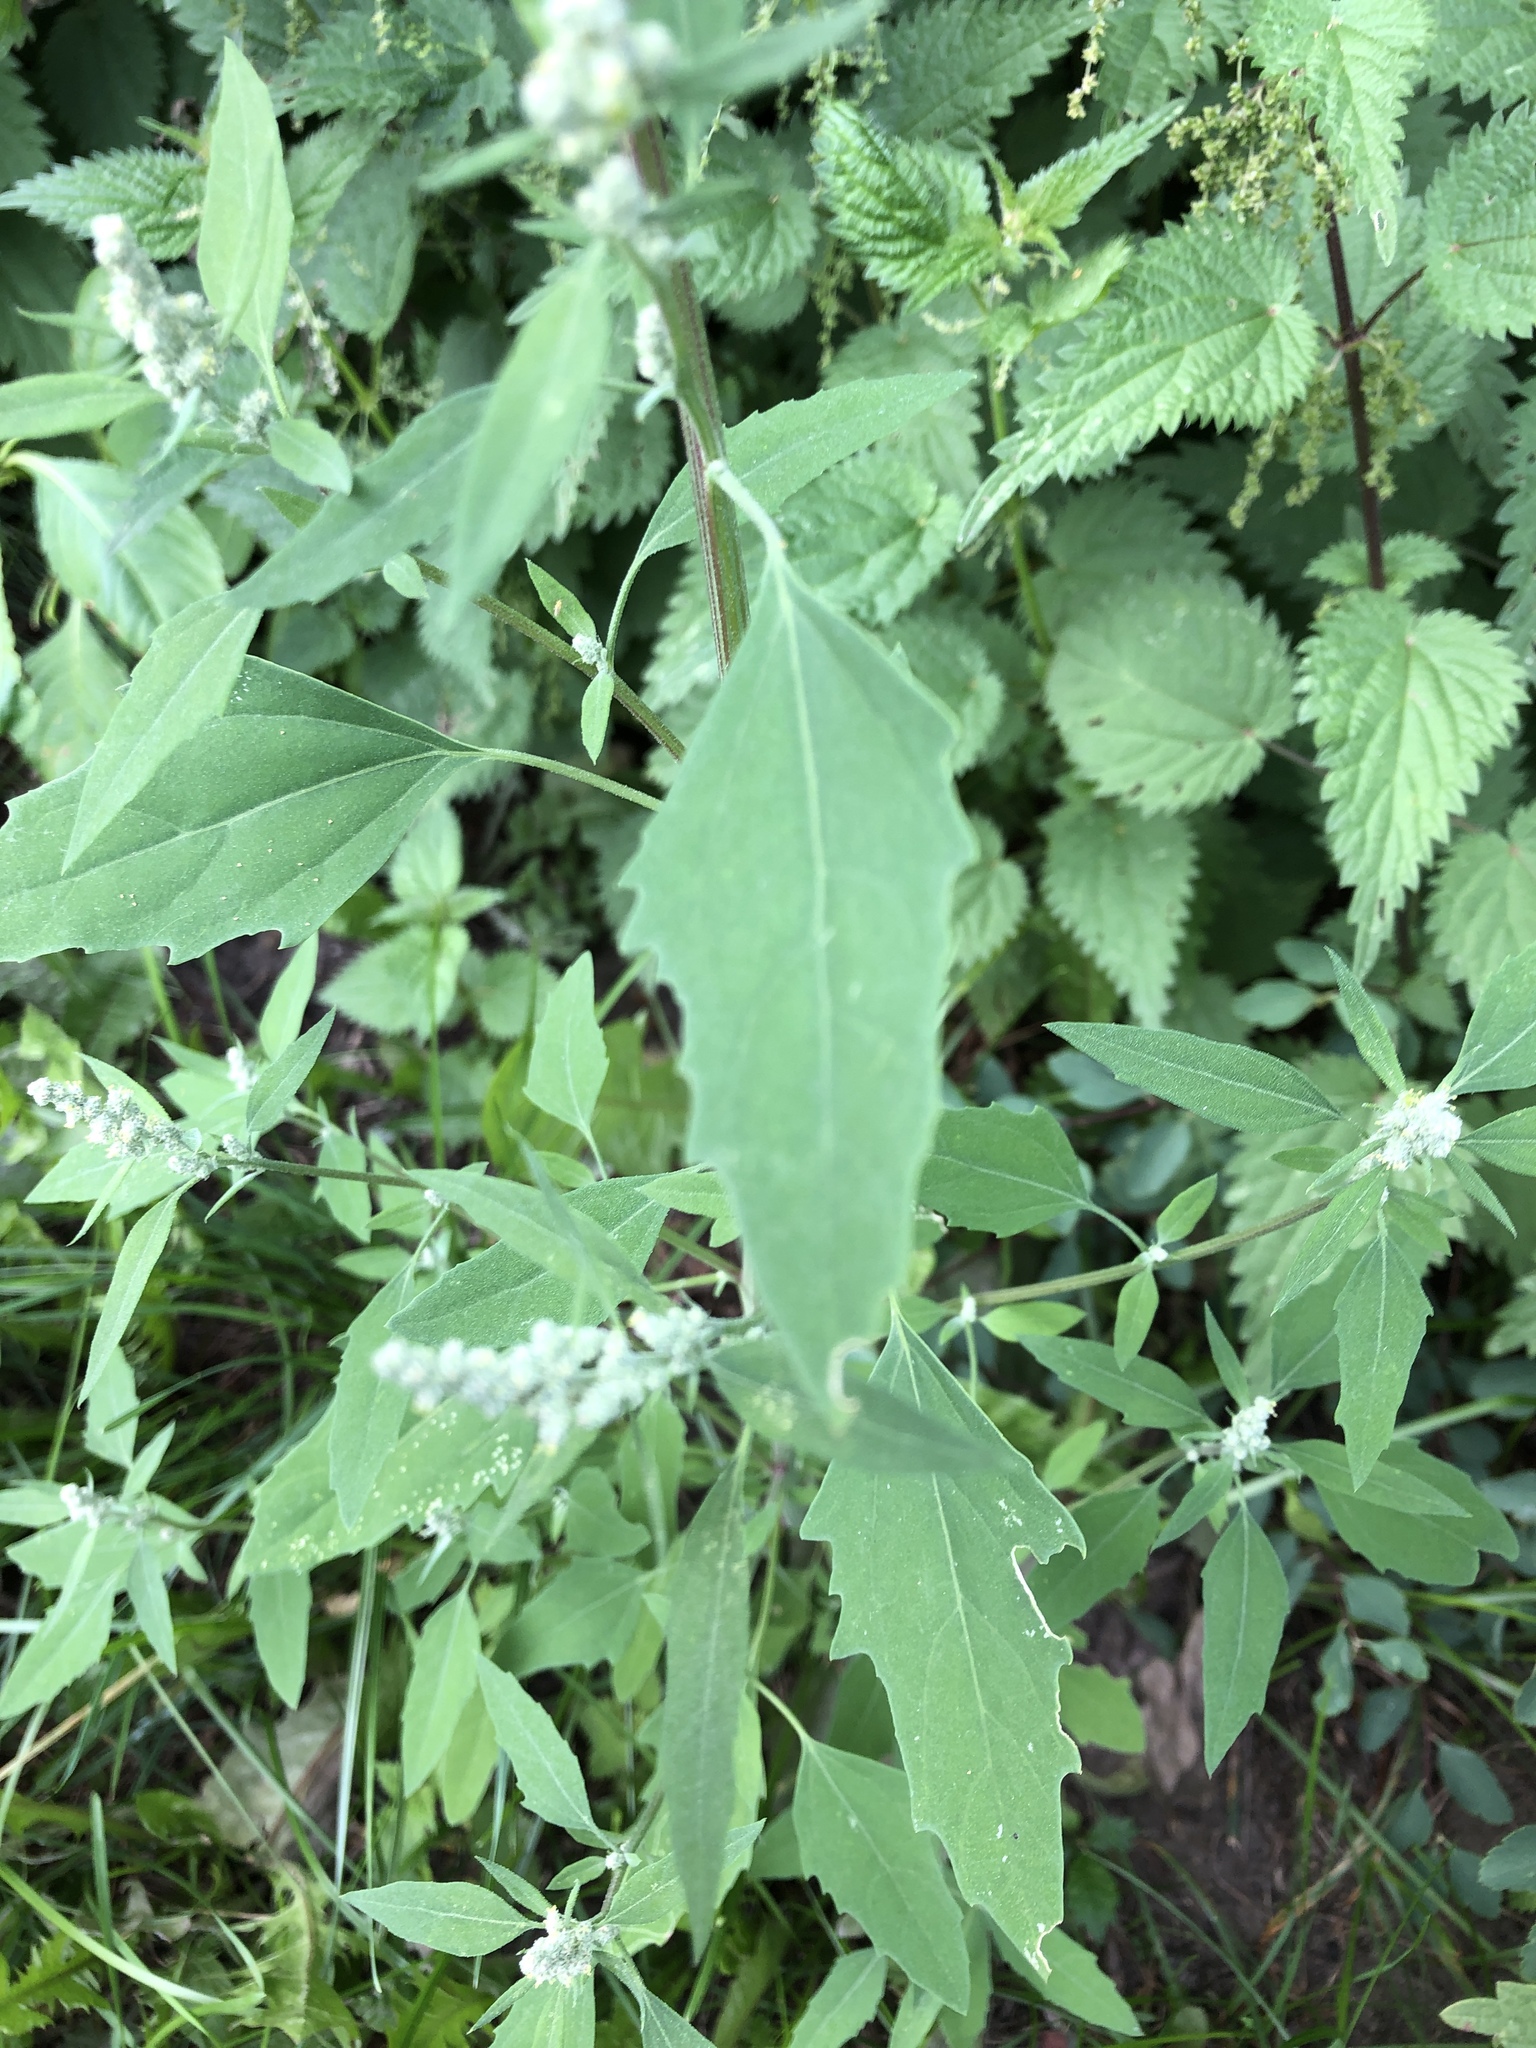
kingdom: Plantae
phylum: Tracheophyta
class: Magnoliopsida
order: Caryophyllales
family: Amaranthaceae
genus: Chenopodium
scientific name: Chenopodium album
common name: Fat-hen
